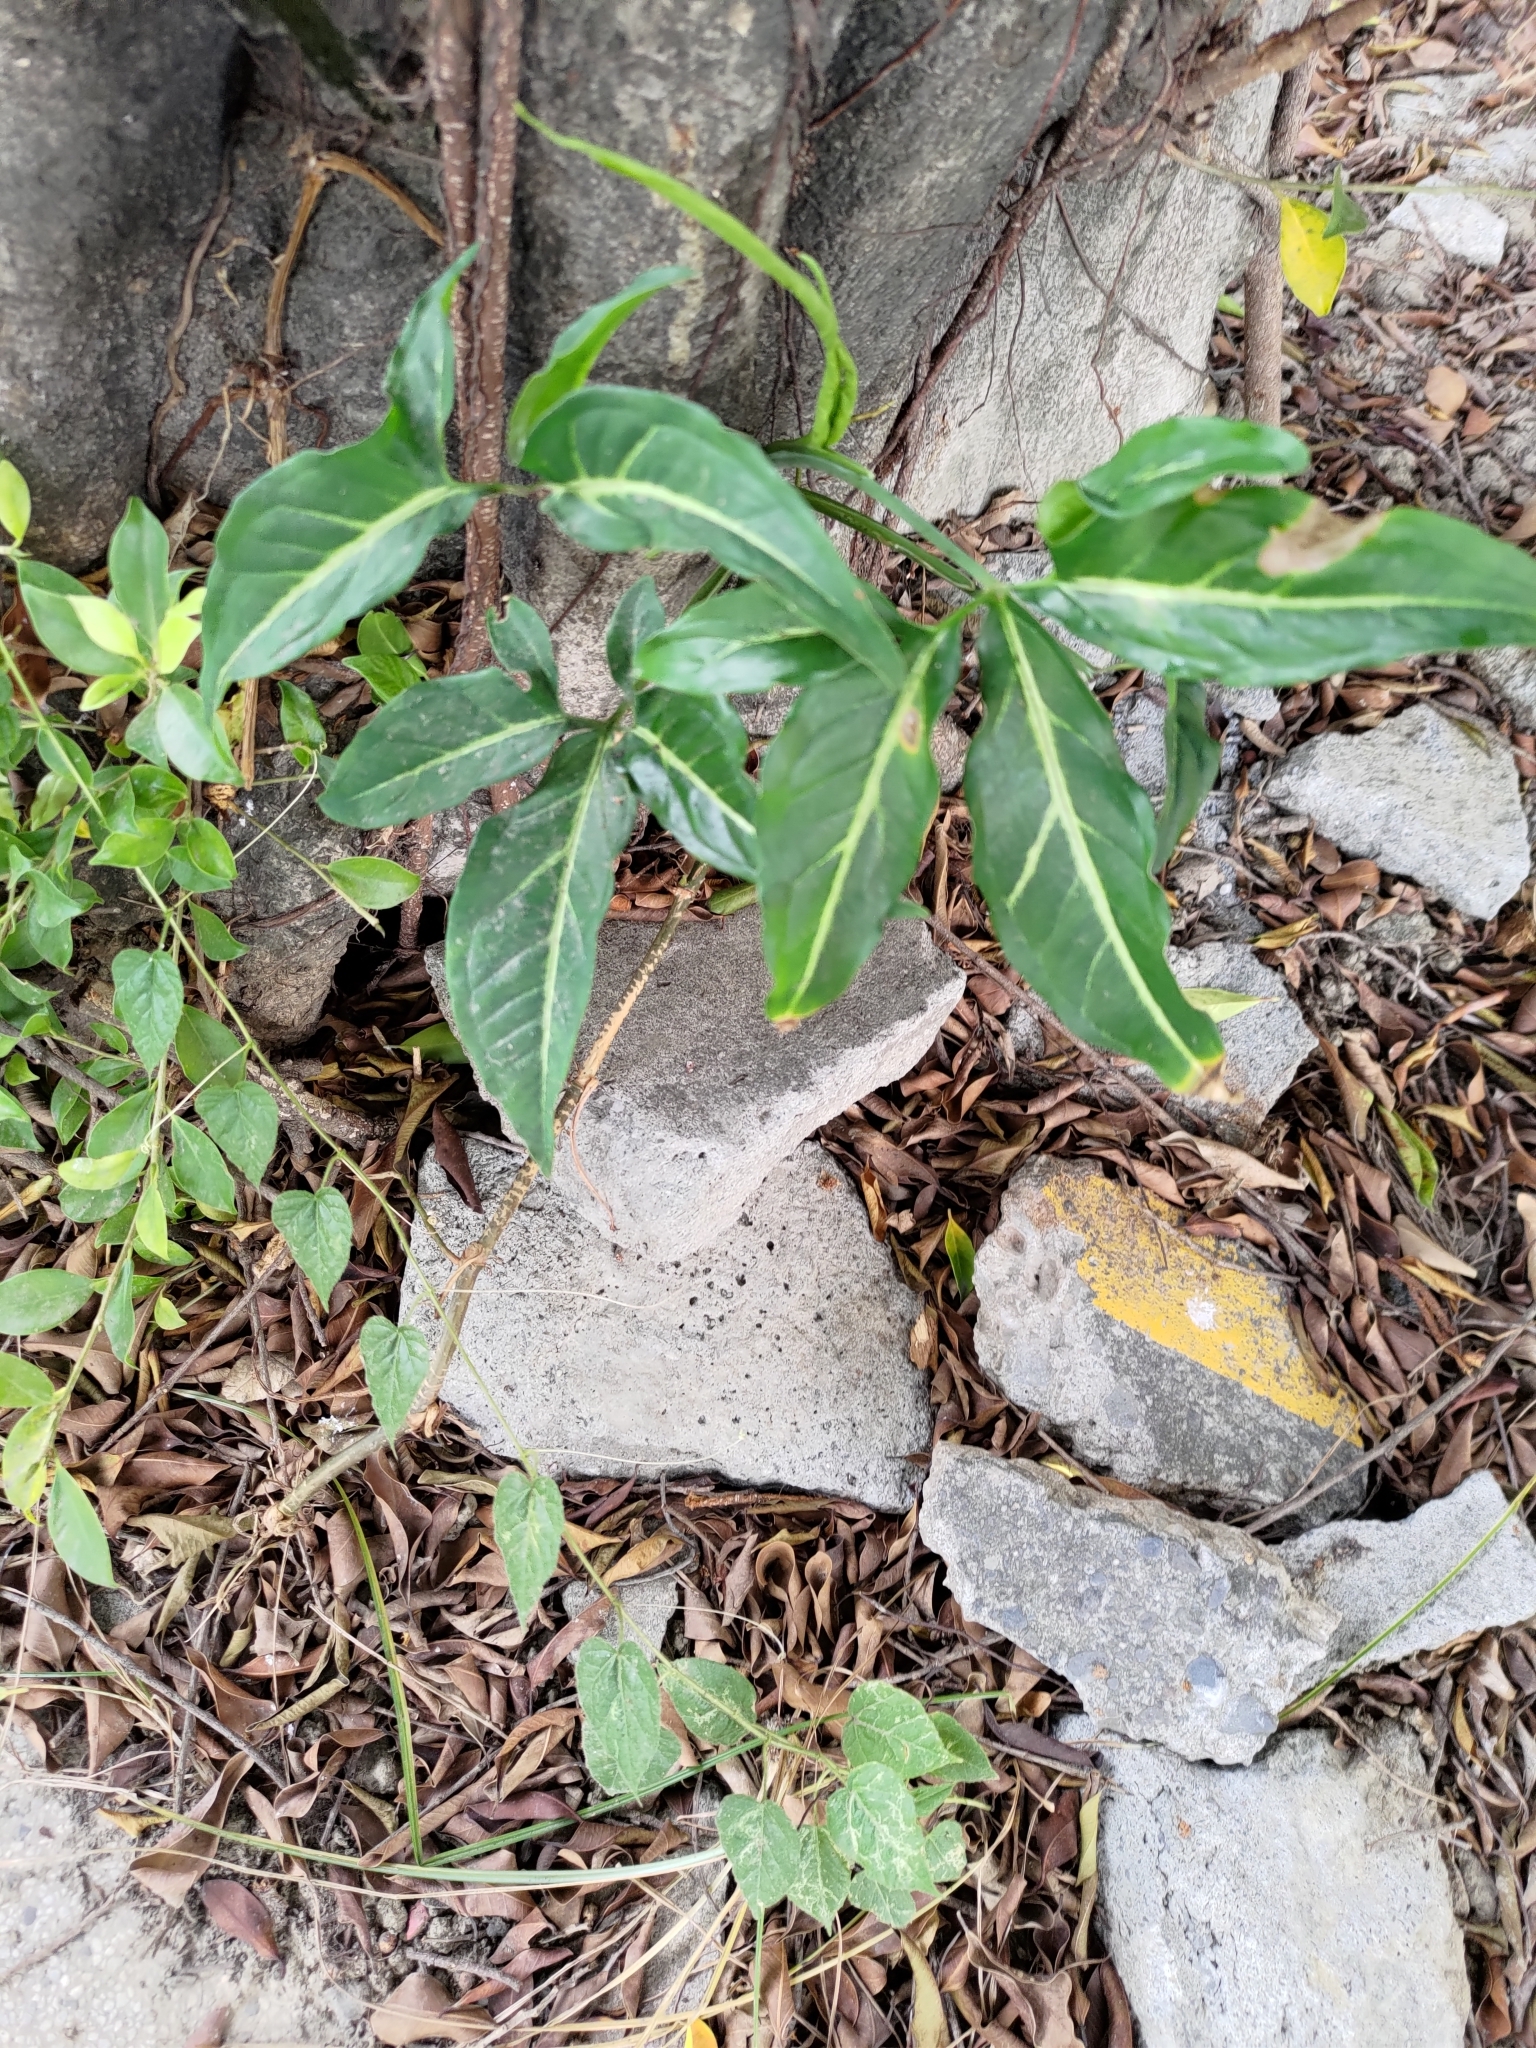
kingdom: Plantae
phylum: Tracheophyta
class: Liliopsida
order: Alismatales
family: Araceae
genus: Syngonium
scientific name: Syngonium angustatum
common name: Fivefingers
